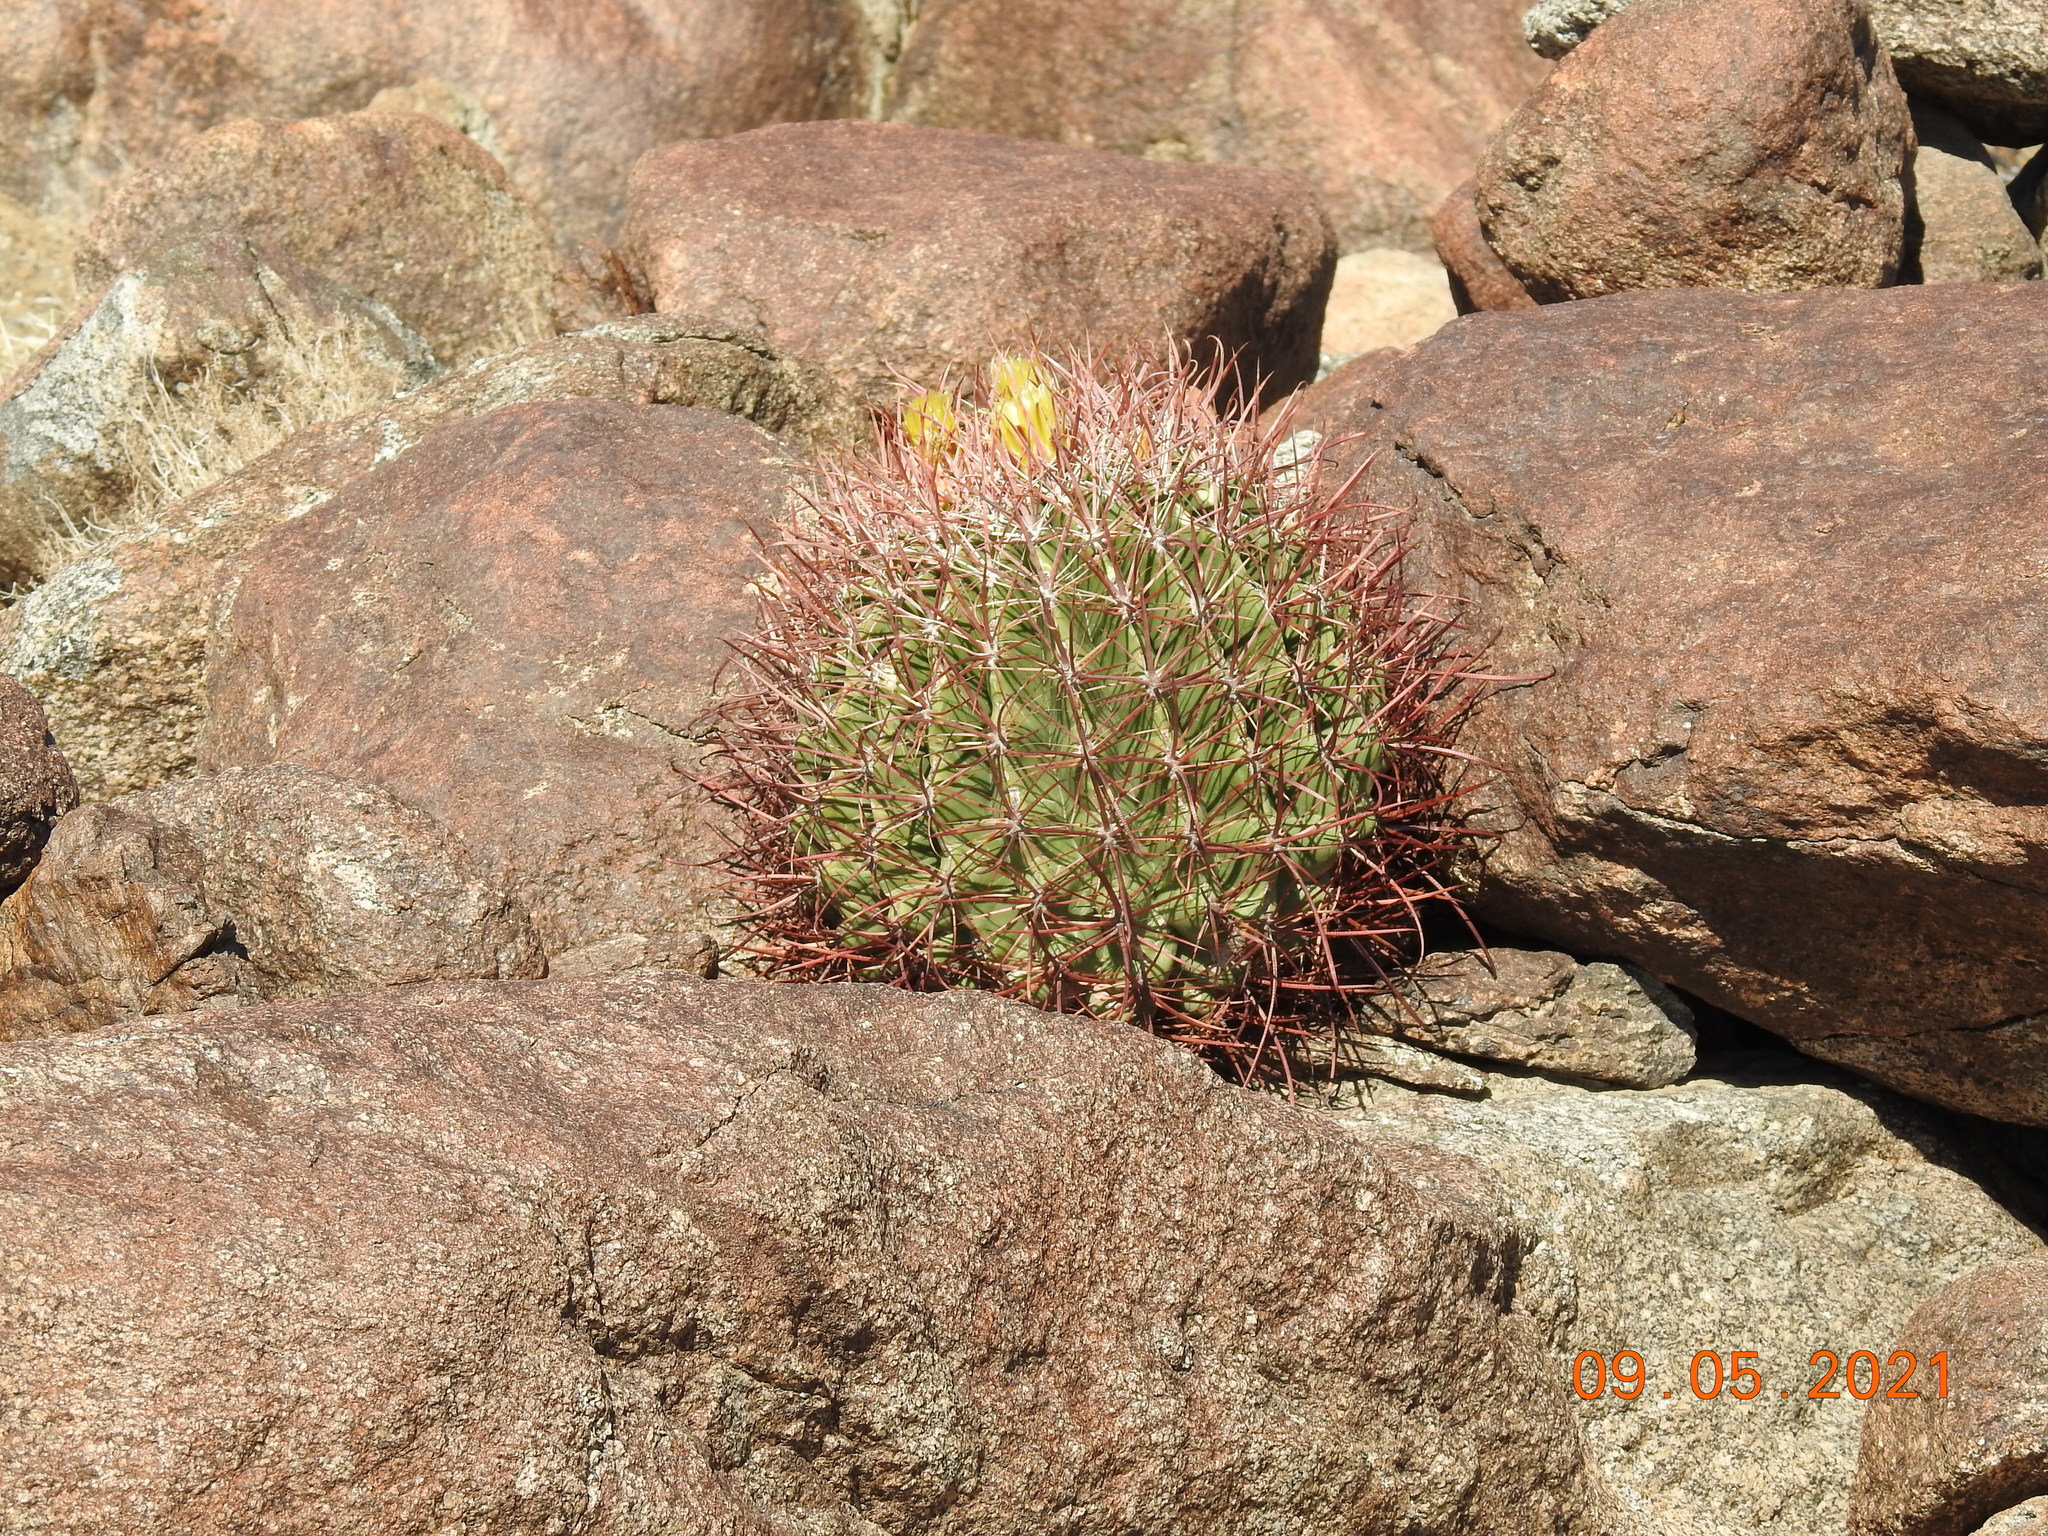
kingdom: Plantae
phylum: Tracheophyta
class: Magnoliopsida
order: Caryophyllales
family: Cactaceae
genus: Ferocactus
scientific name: Ferocactus cylindraceus
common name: California barrel cactus
